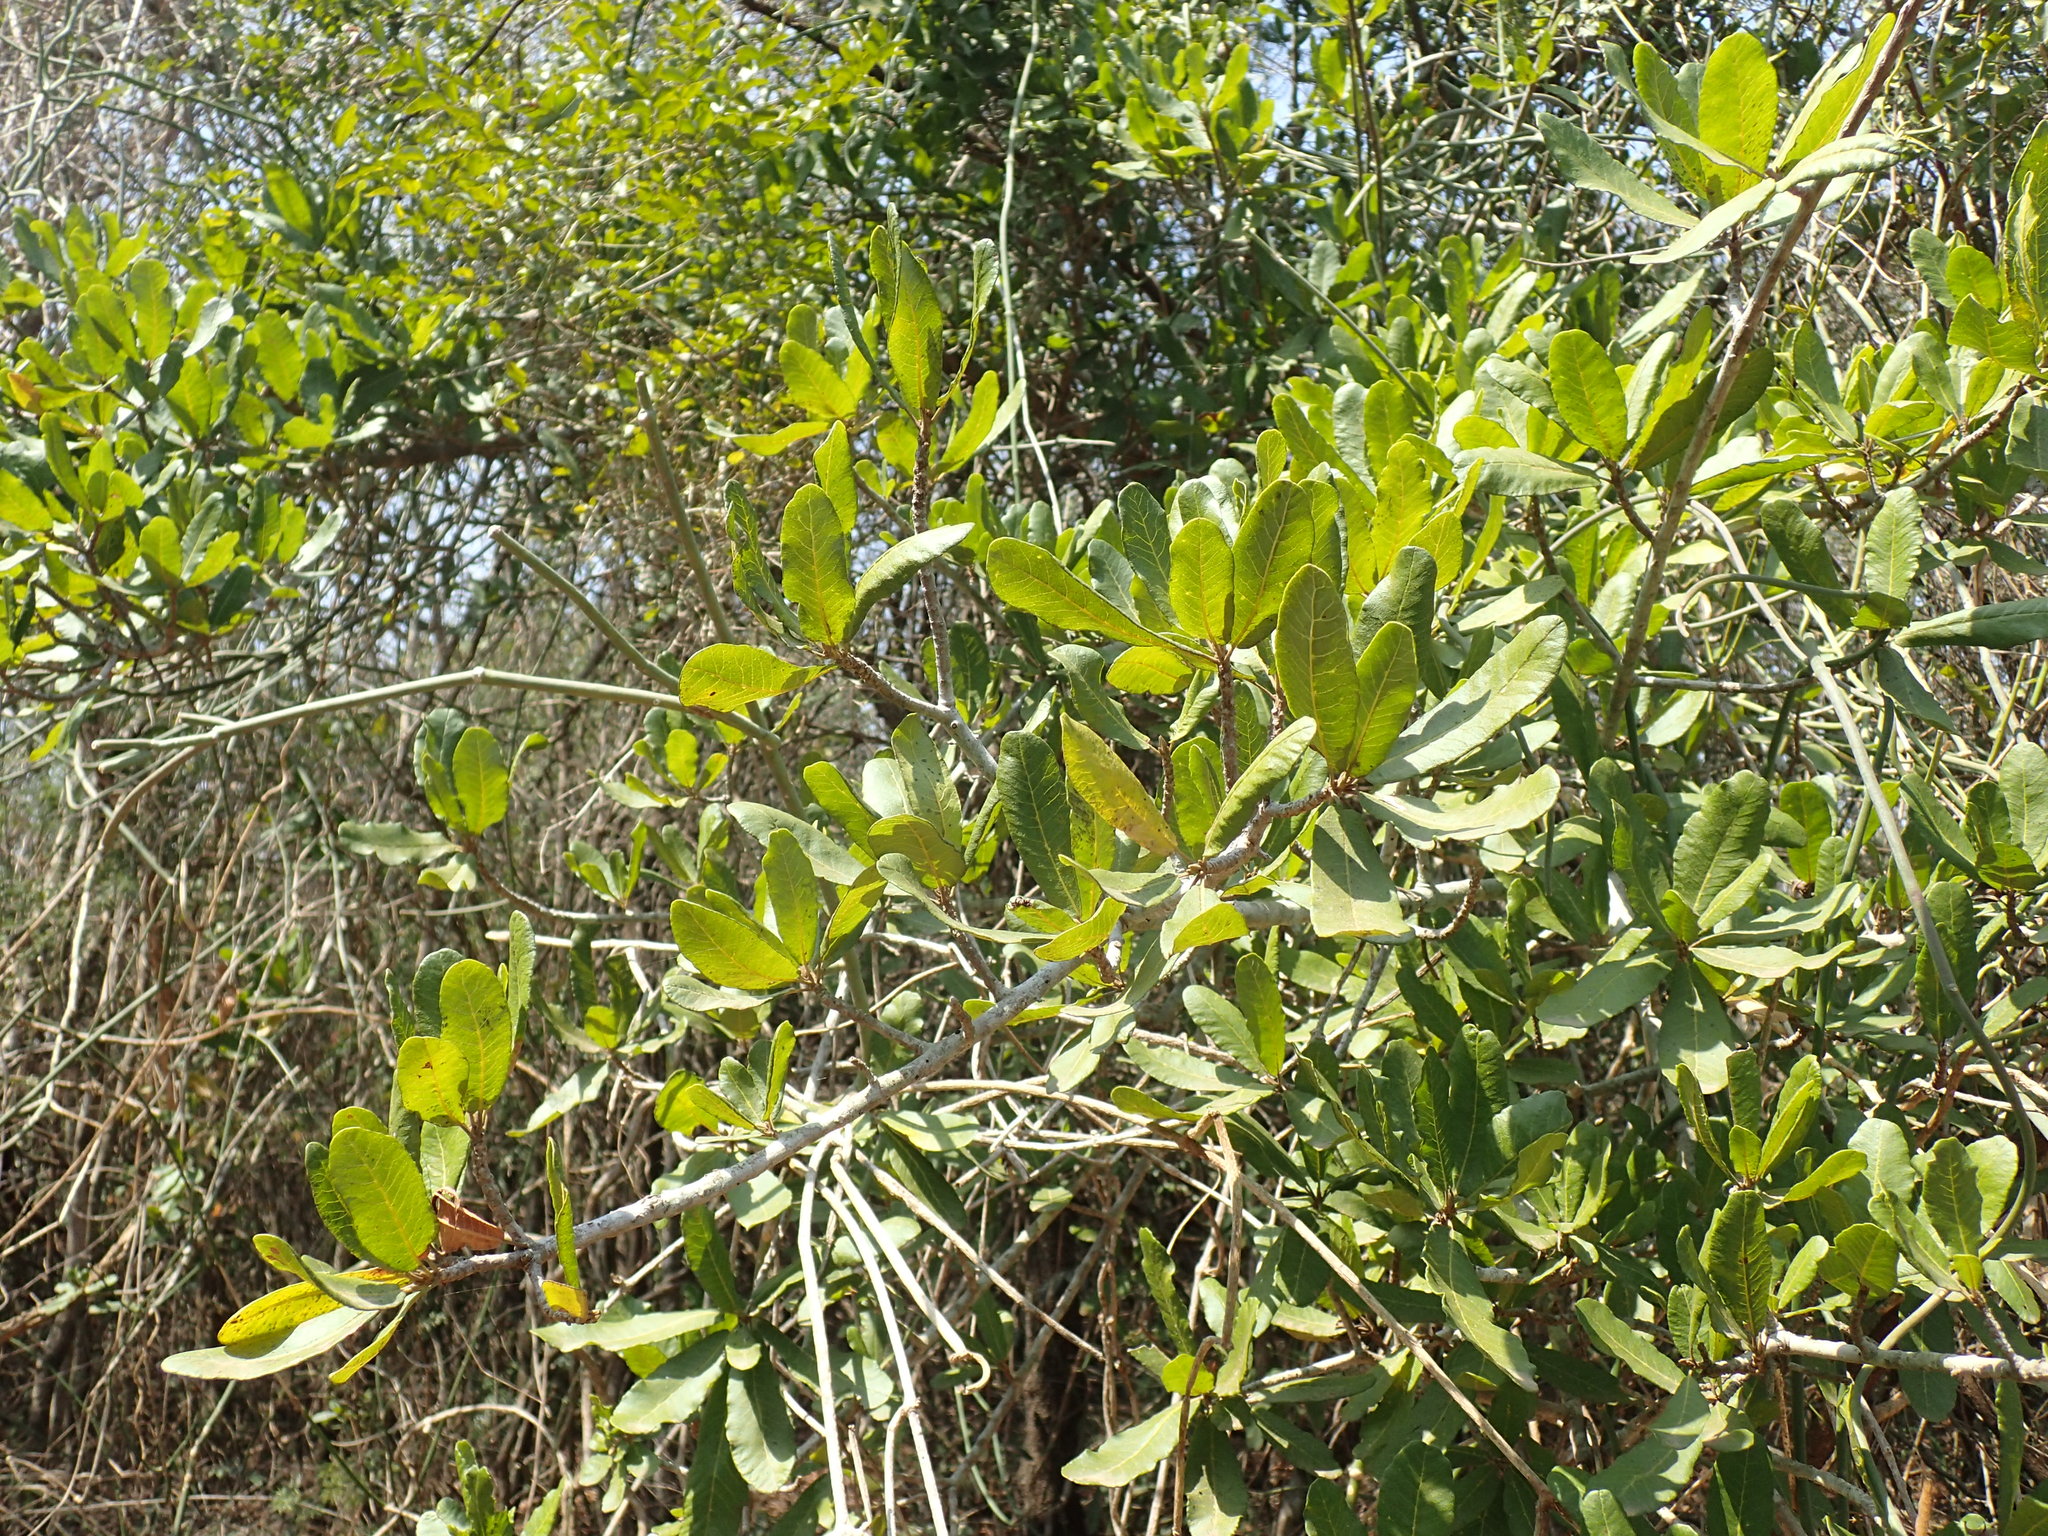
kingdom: Plantae
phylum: Tracheophyta
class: Magnoliopsida
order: Sapindales
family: Sapindaceae
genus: Pappea
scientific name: Pappea capensis
